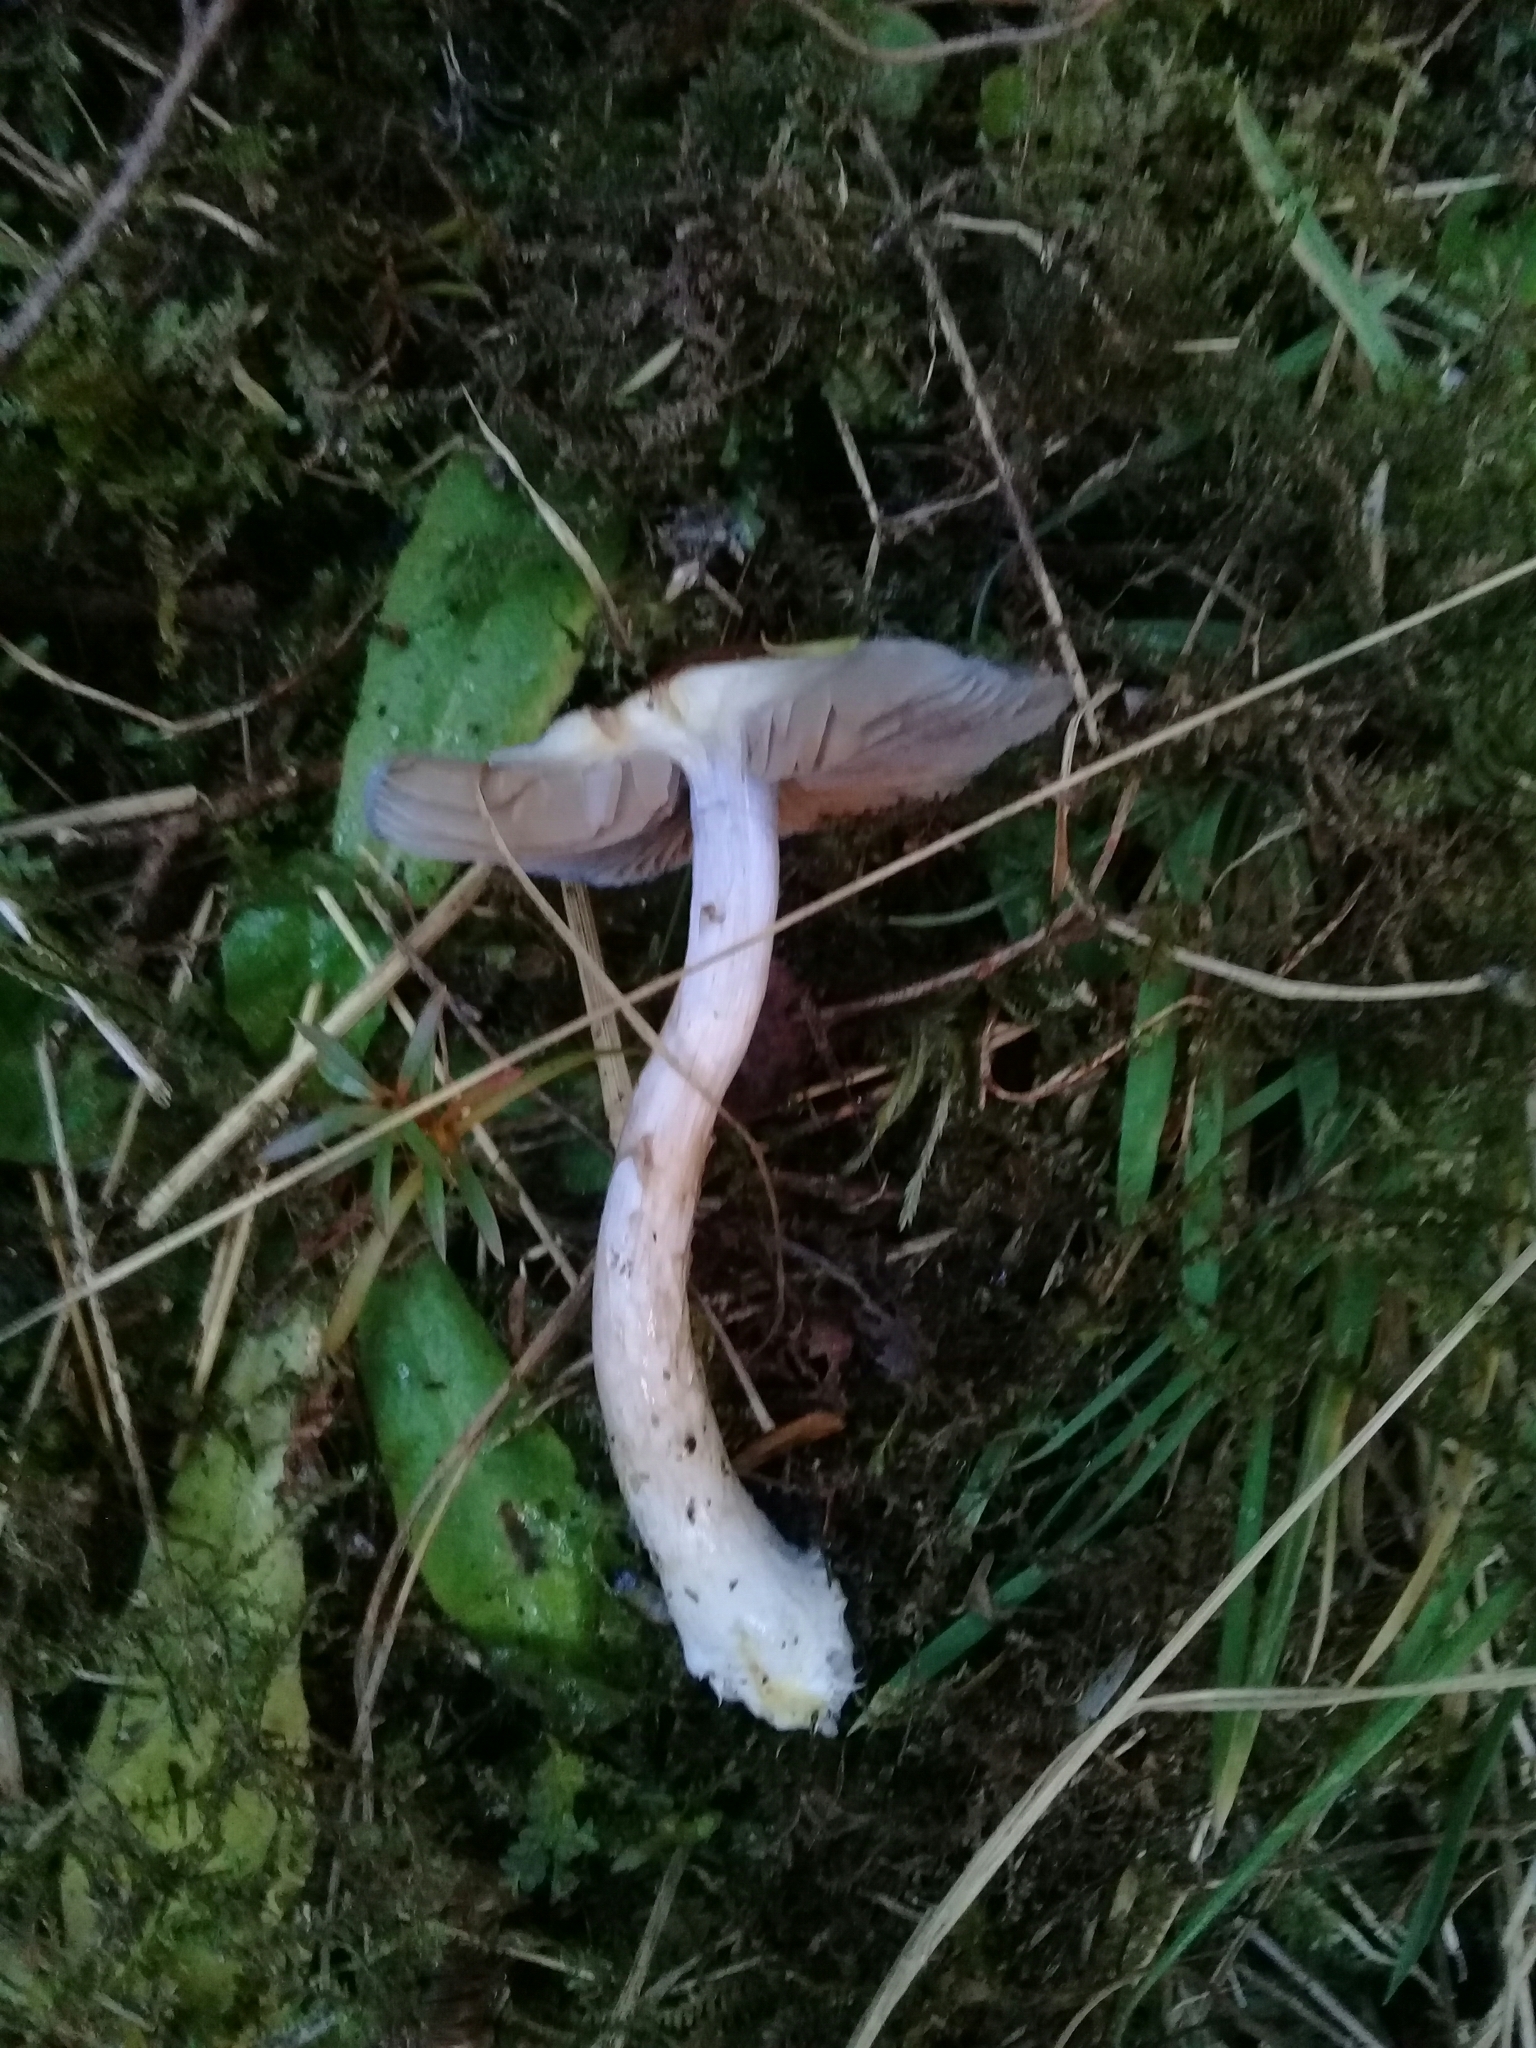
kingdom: Fungi
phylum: Basidiomycota
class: Agaricomycetes
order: Agaricales
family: Cortinariaceae
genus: Cortinarius
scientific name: Cortinarius rotundisporus
